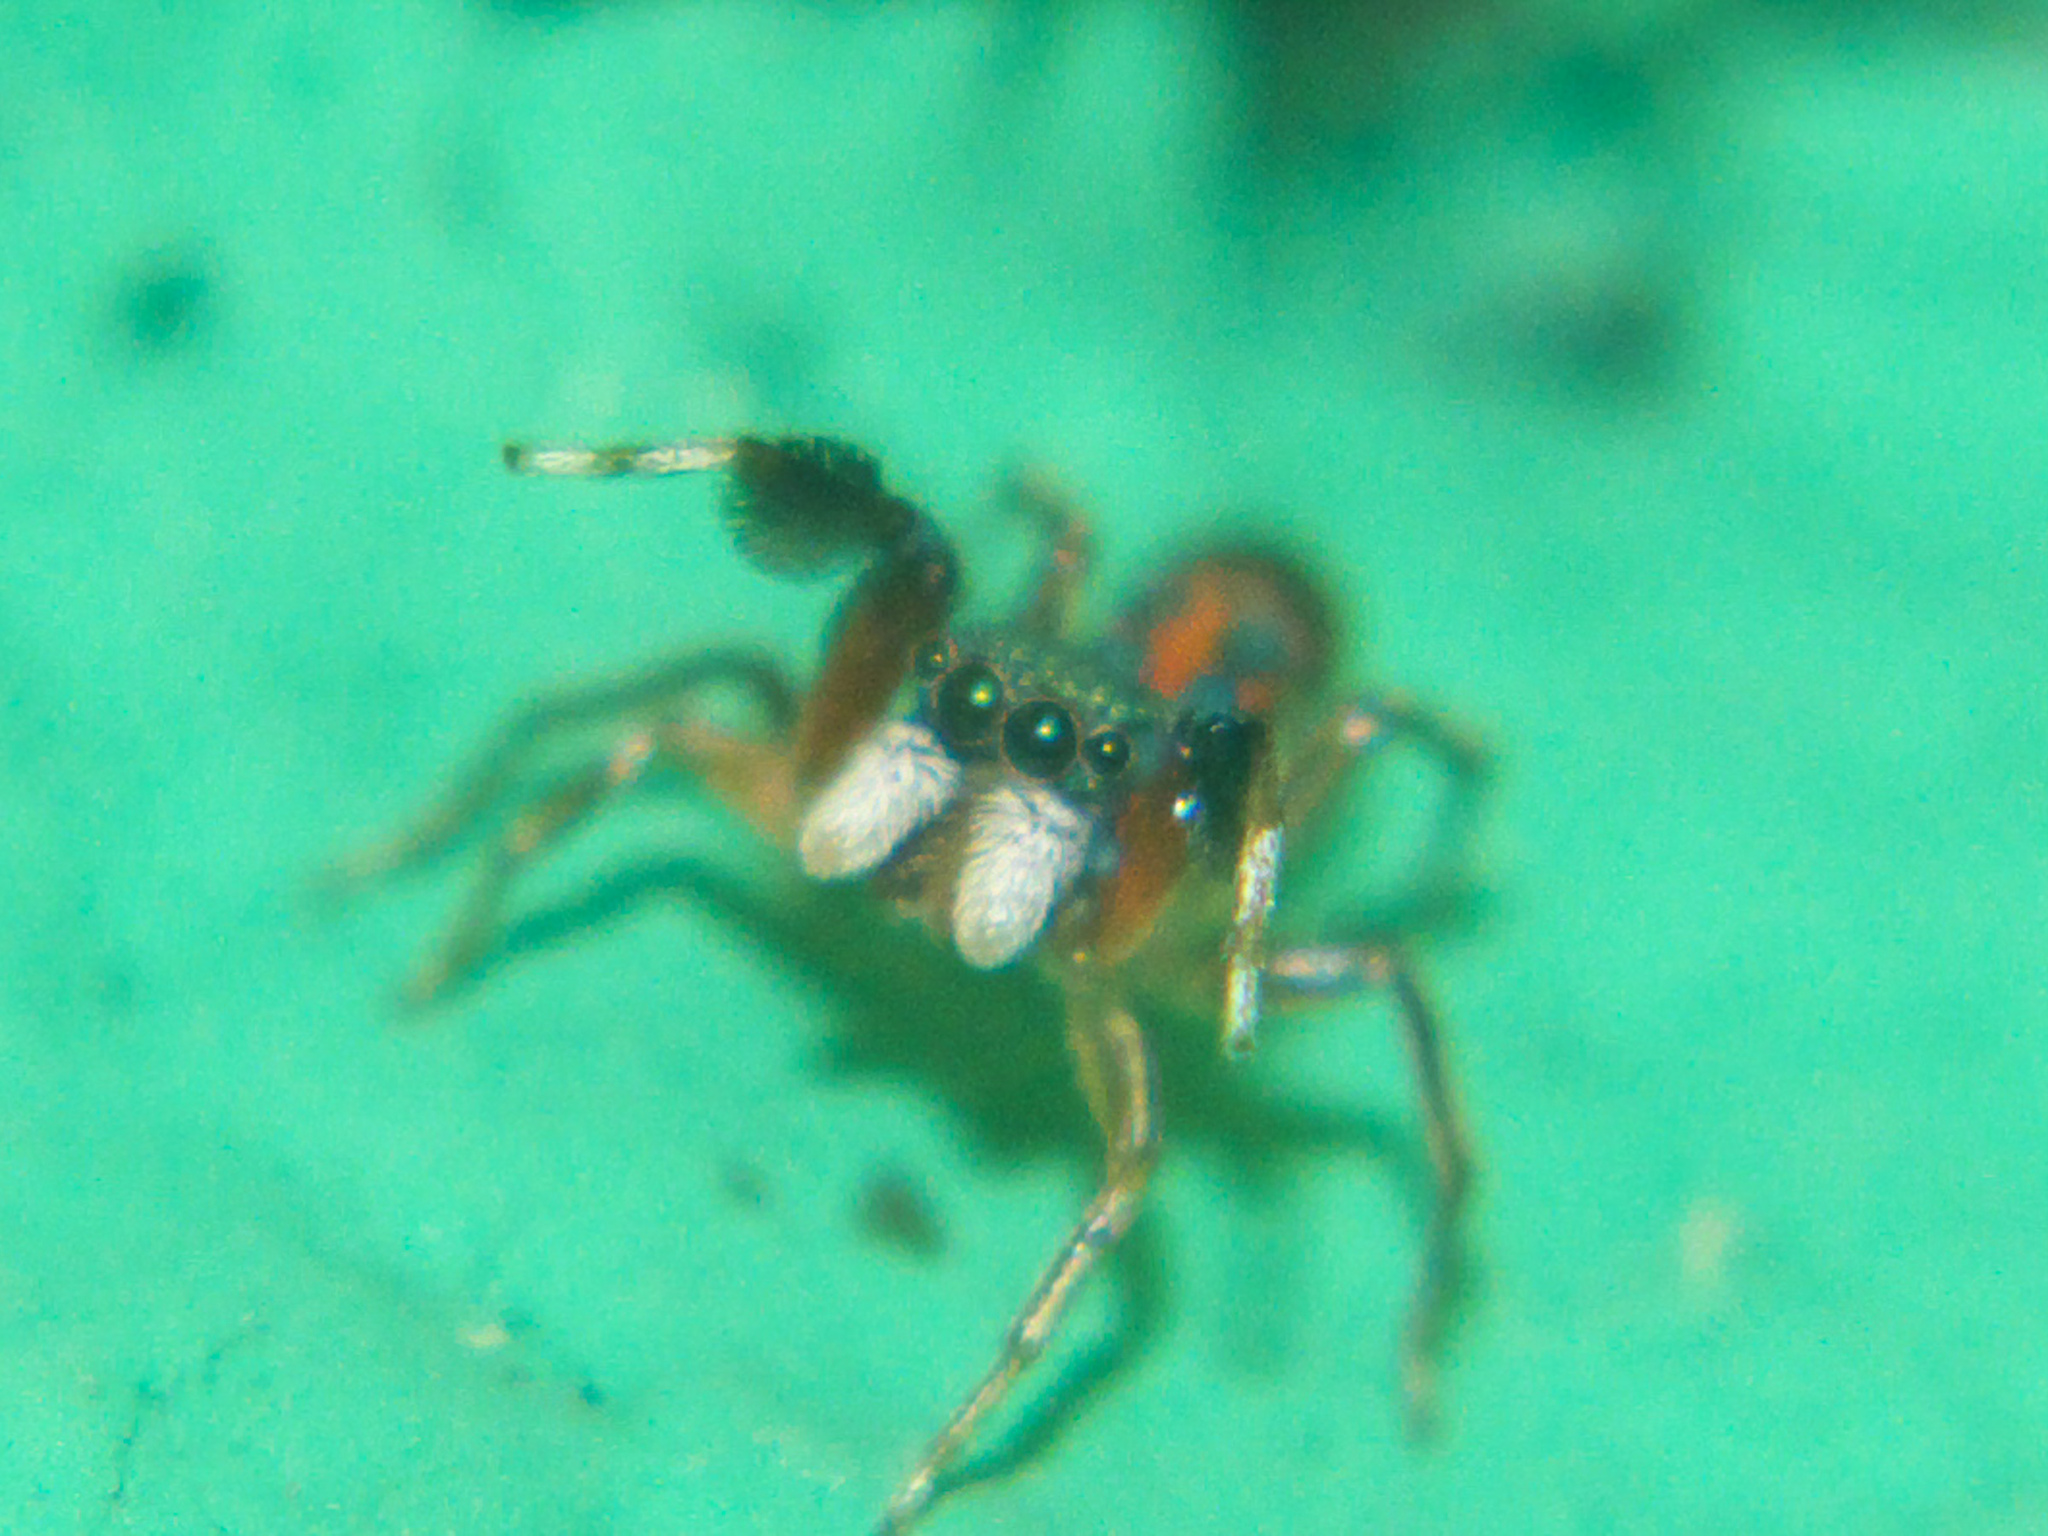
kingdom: Animalia
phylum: Arthropoda
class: Arachnida
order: Araneae
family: Salticidae
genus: Siler
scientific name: Siler semiglaucus
